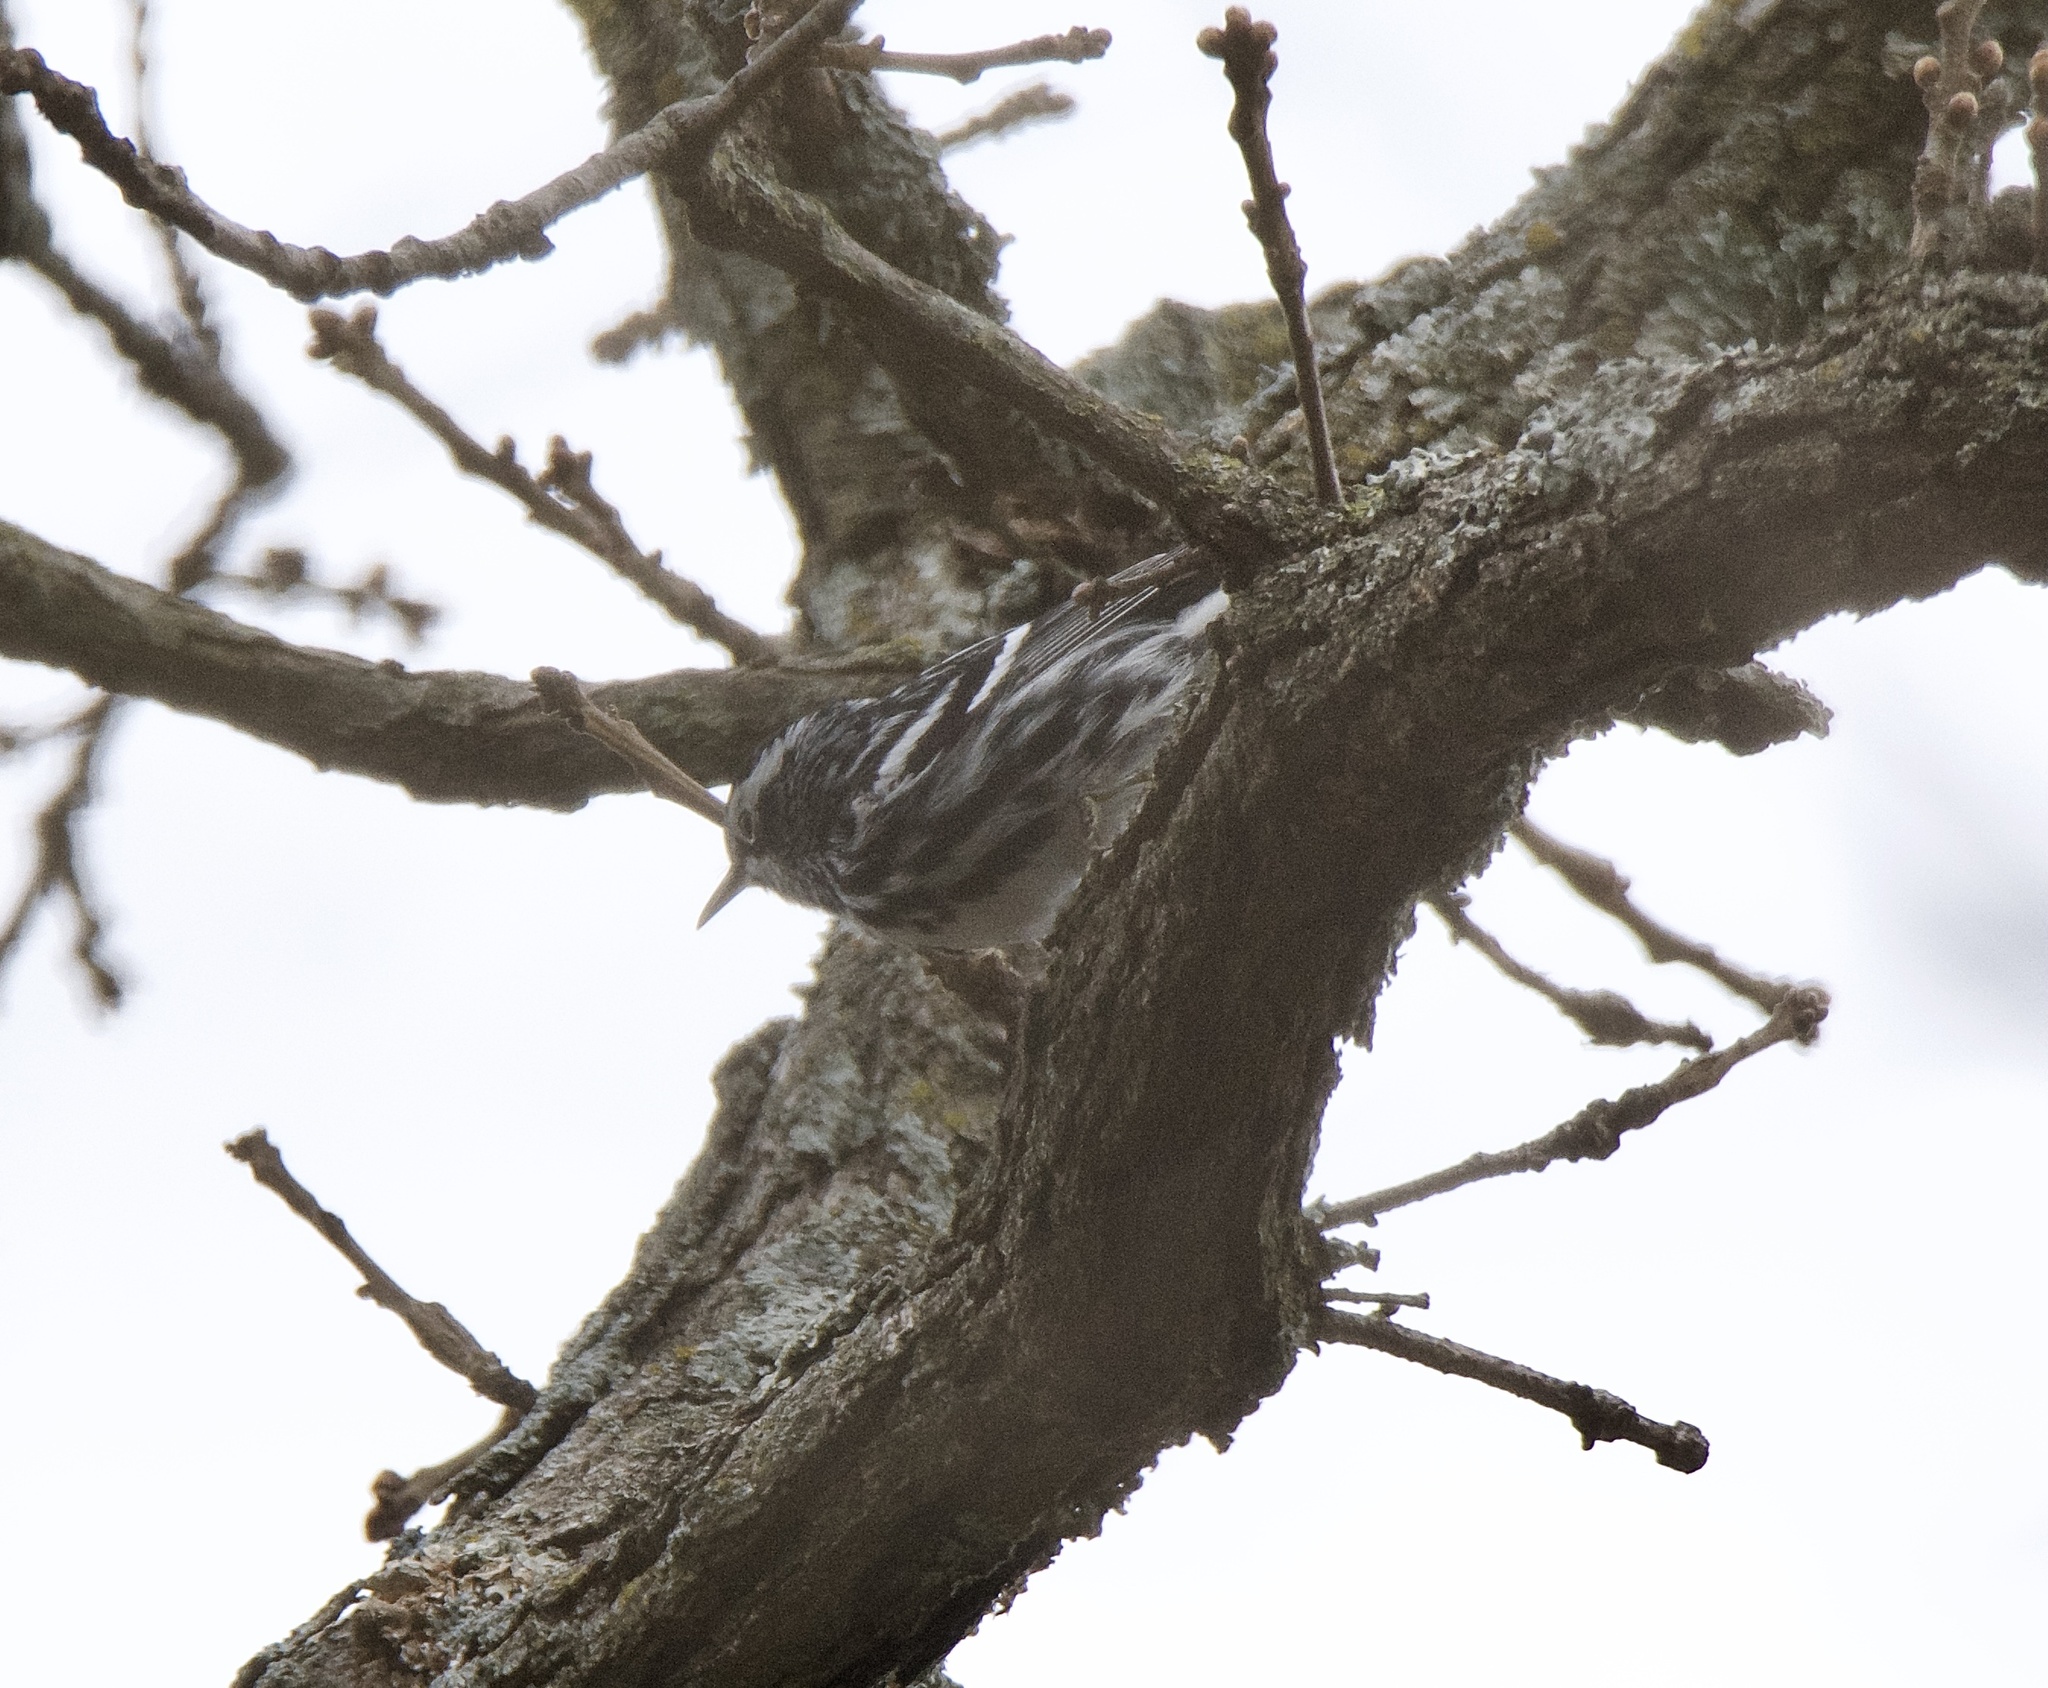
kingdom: Animalia
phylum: Chordata
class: Aves
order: Passeriformes
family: Parulidae
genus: Mniotilta
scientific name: Mniotilta varia
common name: Black-and-white warbler
